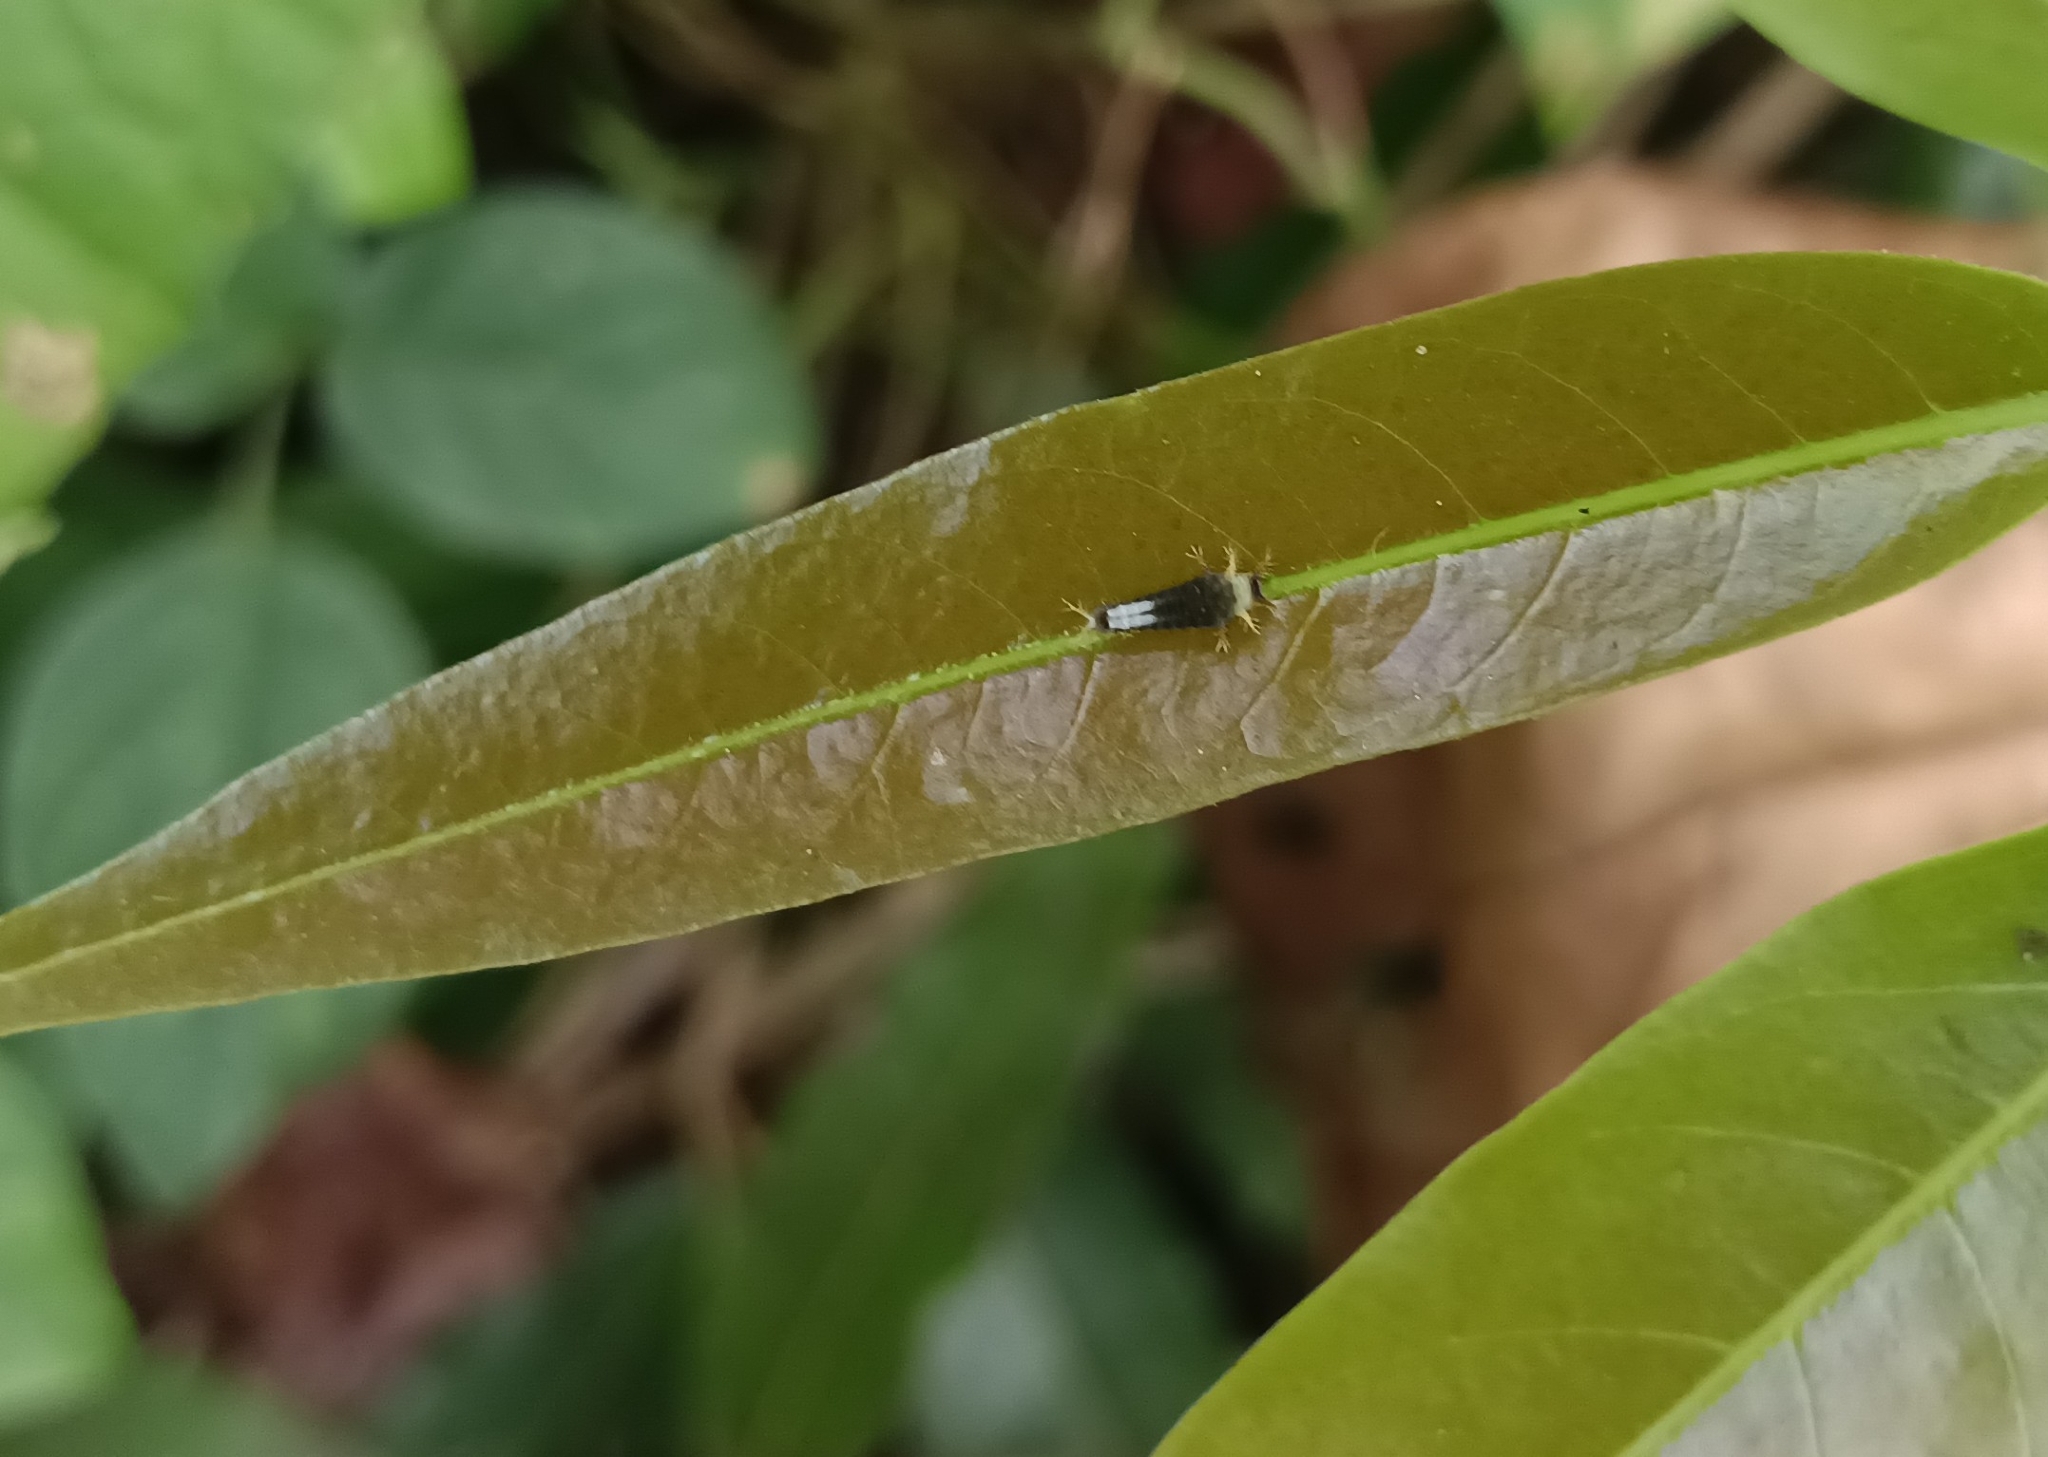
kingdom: Animalia
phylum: Arthropoda
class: Insecta
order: Lepidoptera
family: Papilionidae
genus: Graphium
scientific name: Graphium agamemnon
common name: Tailed jay
